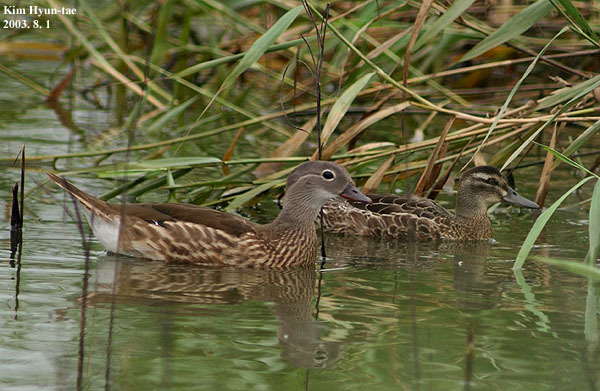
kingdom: Animalia
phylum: Chordata
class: Aves
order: Anseriformes
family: Anatidae
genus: Spatula
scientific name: Spatula querquedula
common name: Garganey
